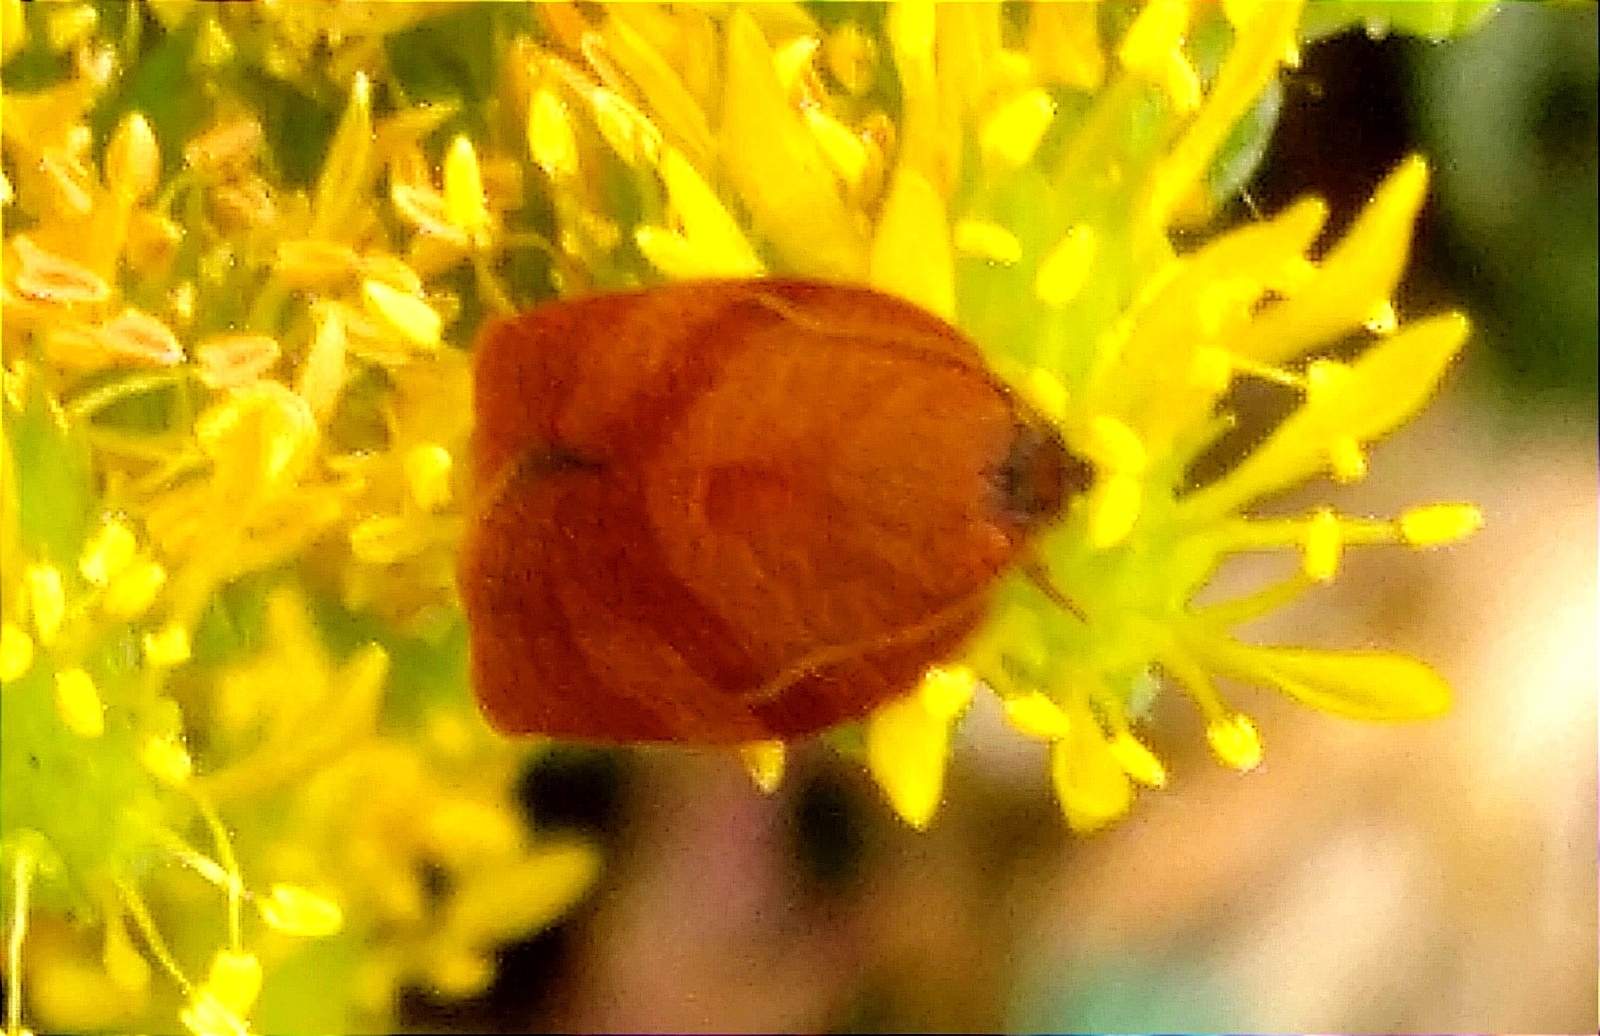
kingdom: Animalia
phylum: Arthropoda
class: Insecta
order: Lepidoptera
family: Tortricidae
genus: Cacoecimorpha
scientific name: Cacoecimorpha pronubana
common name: Carnation tortrix
